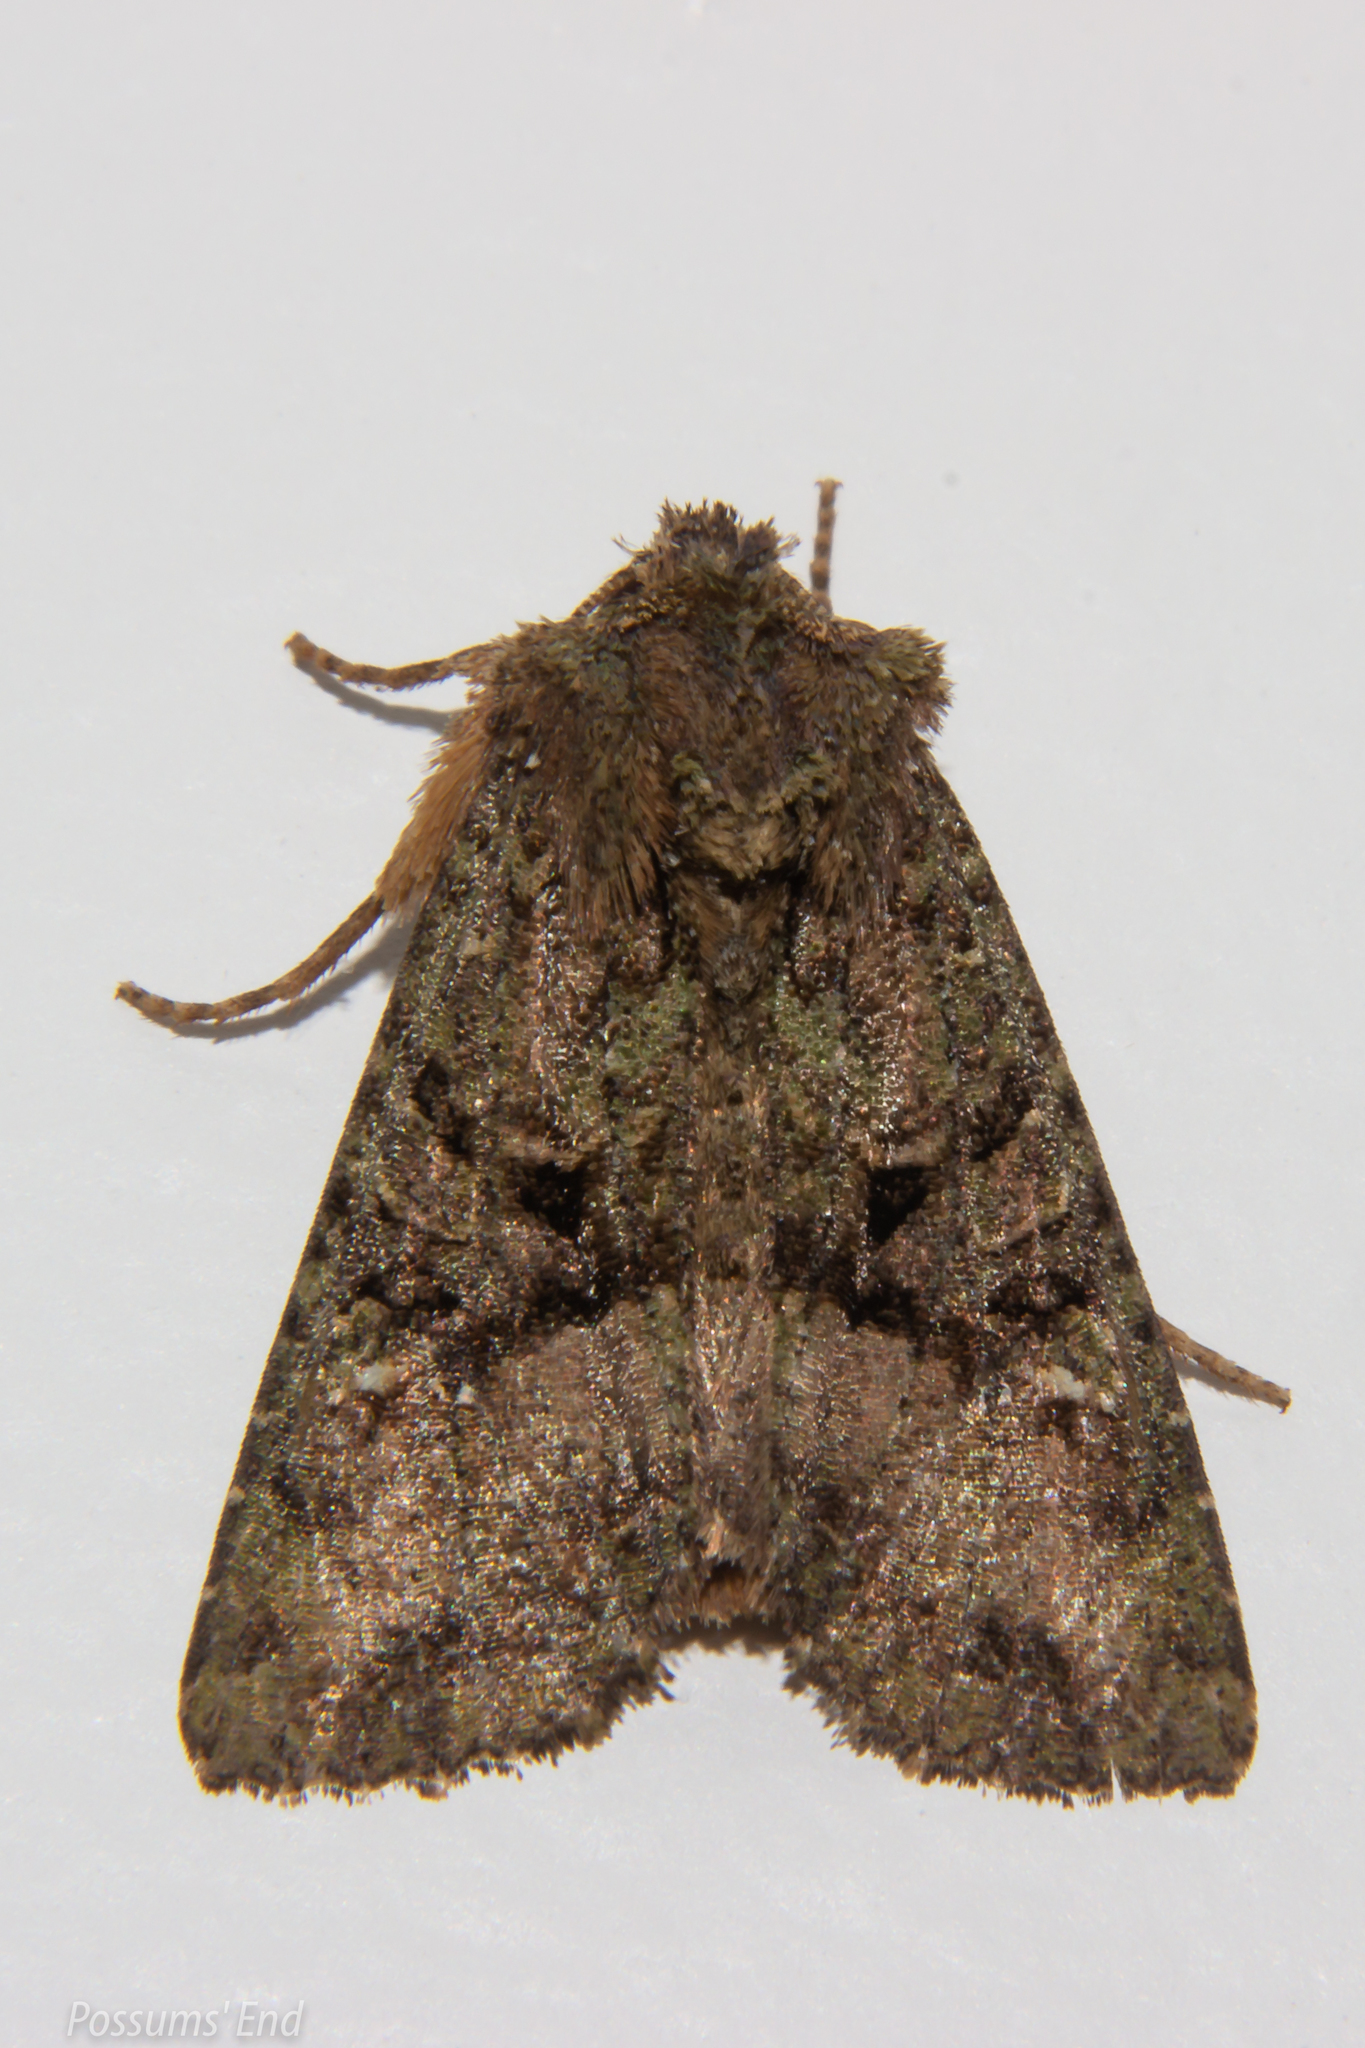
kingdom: Animalia
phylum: Arthropoda
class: Insecta
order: Lepidoptera
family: Noctuidae
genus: Meterana
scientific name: Meterana ochthistis
